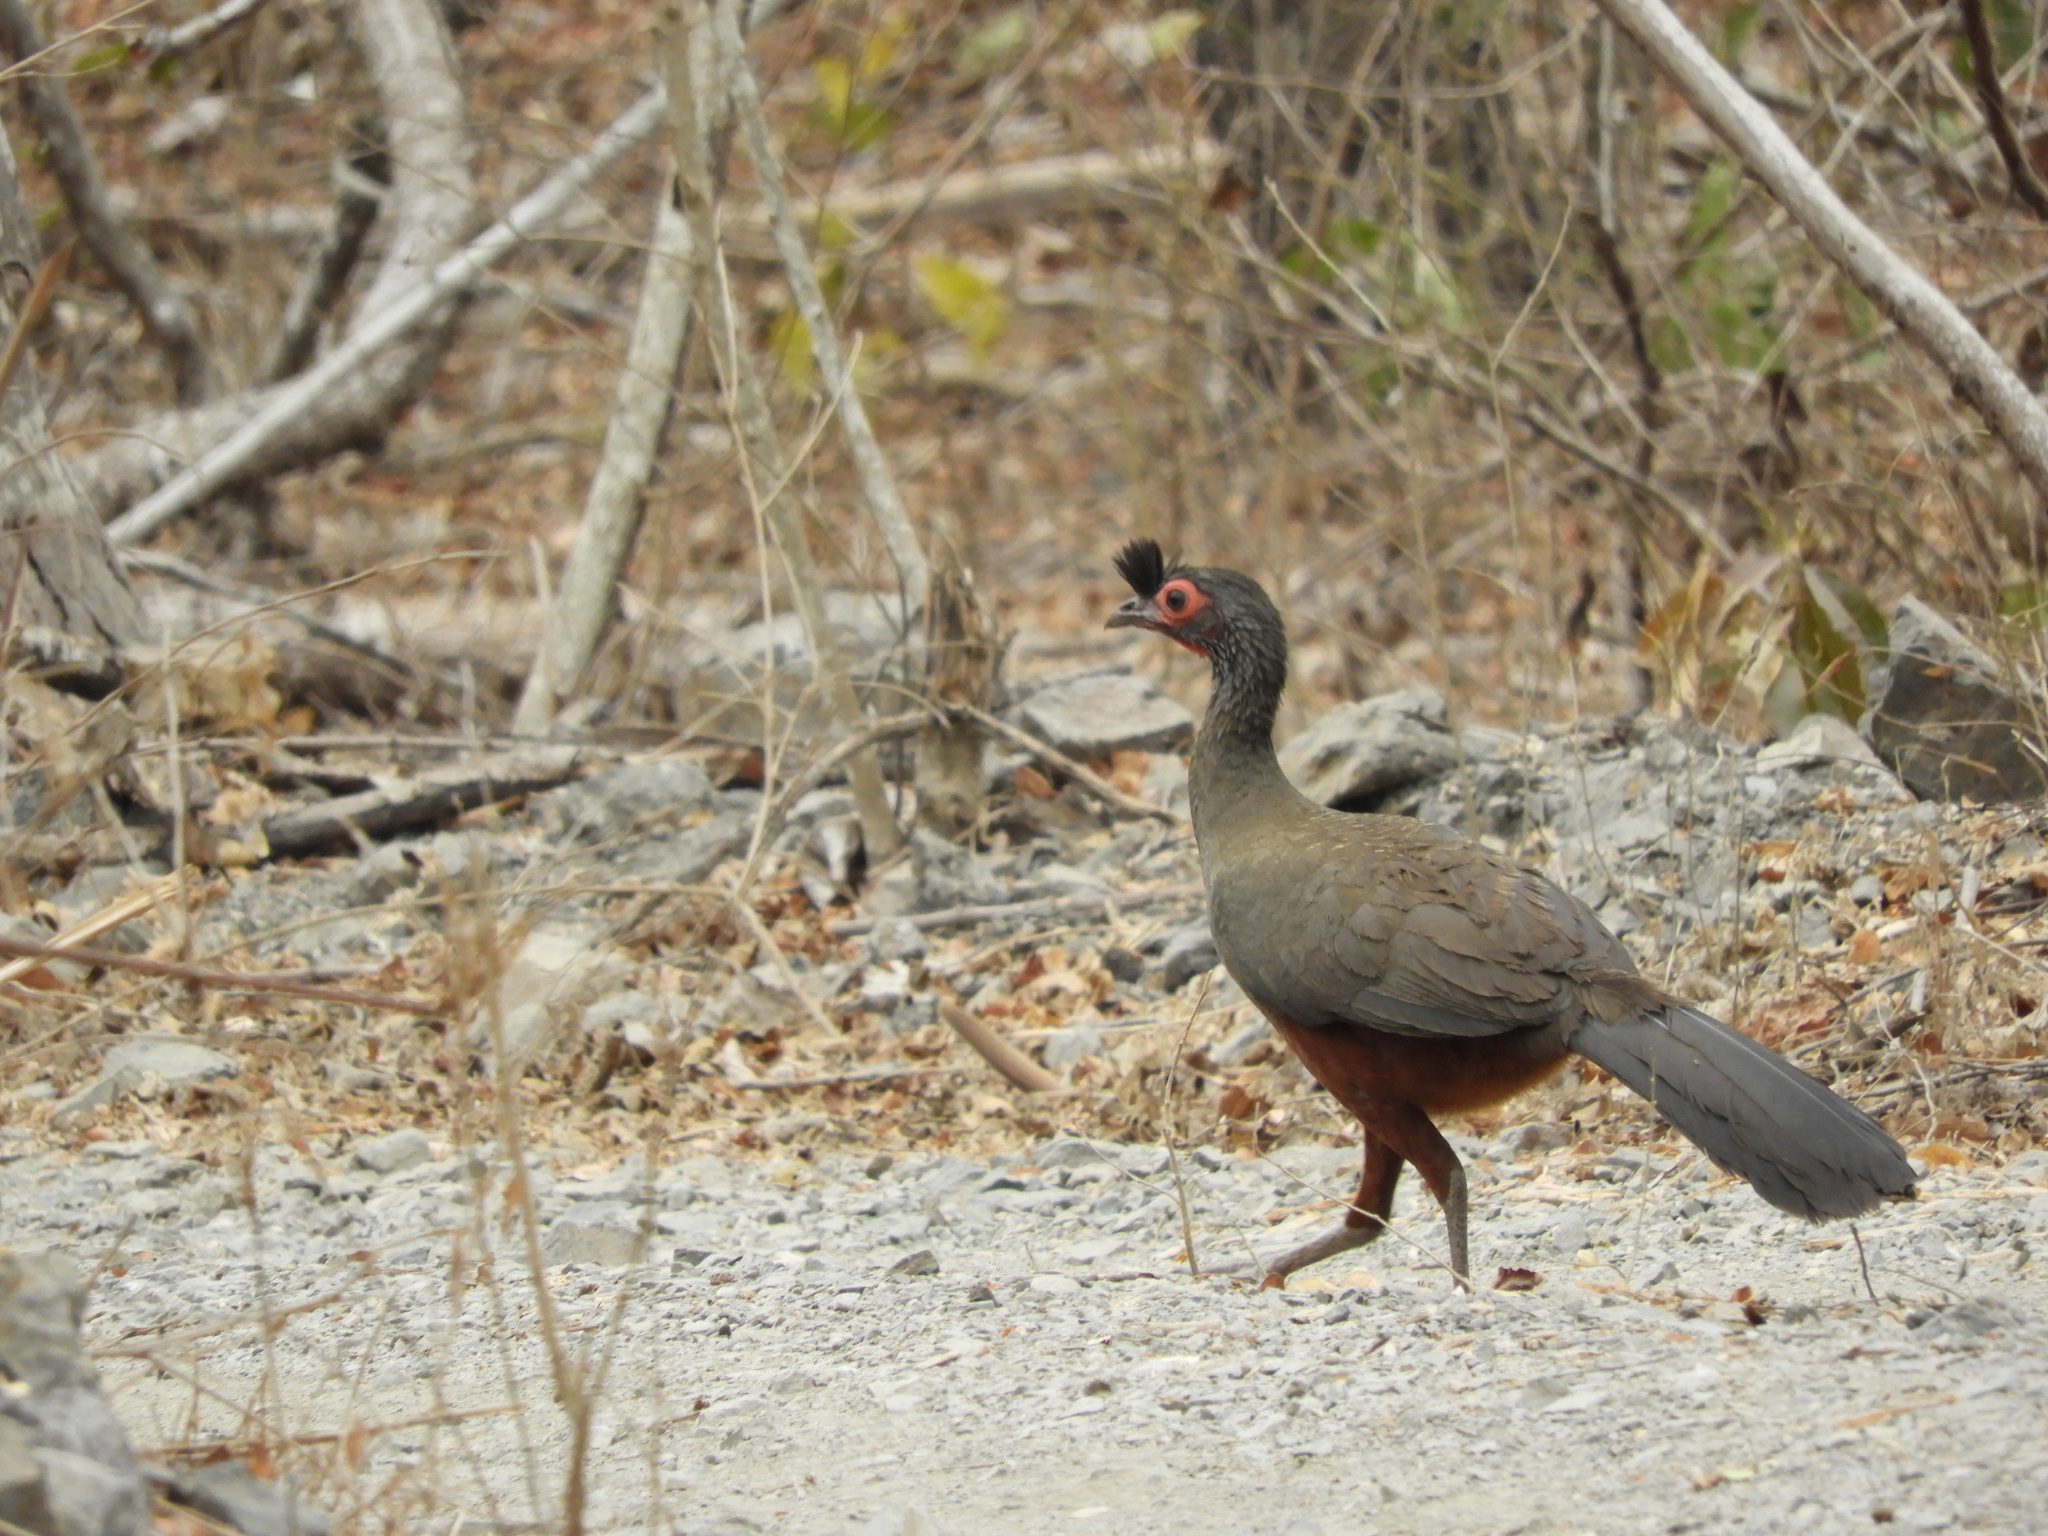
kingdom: Animalia
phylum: Chordata
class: Aves
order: Galliformes
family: Cracidae
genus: Ortalis
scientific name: Ortalis wagleri
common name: Rufous-bellied chachalaca
